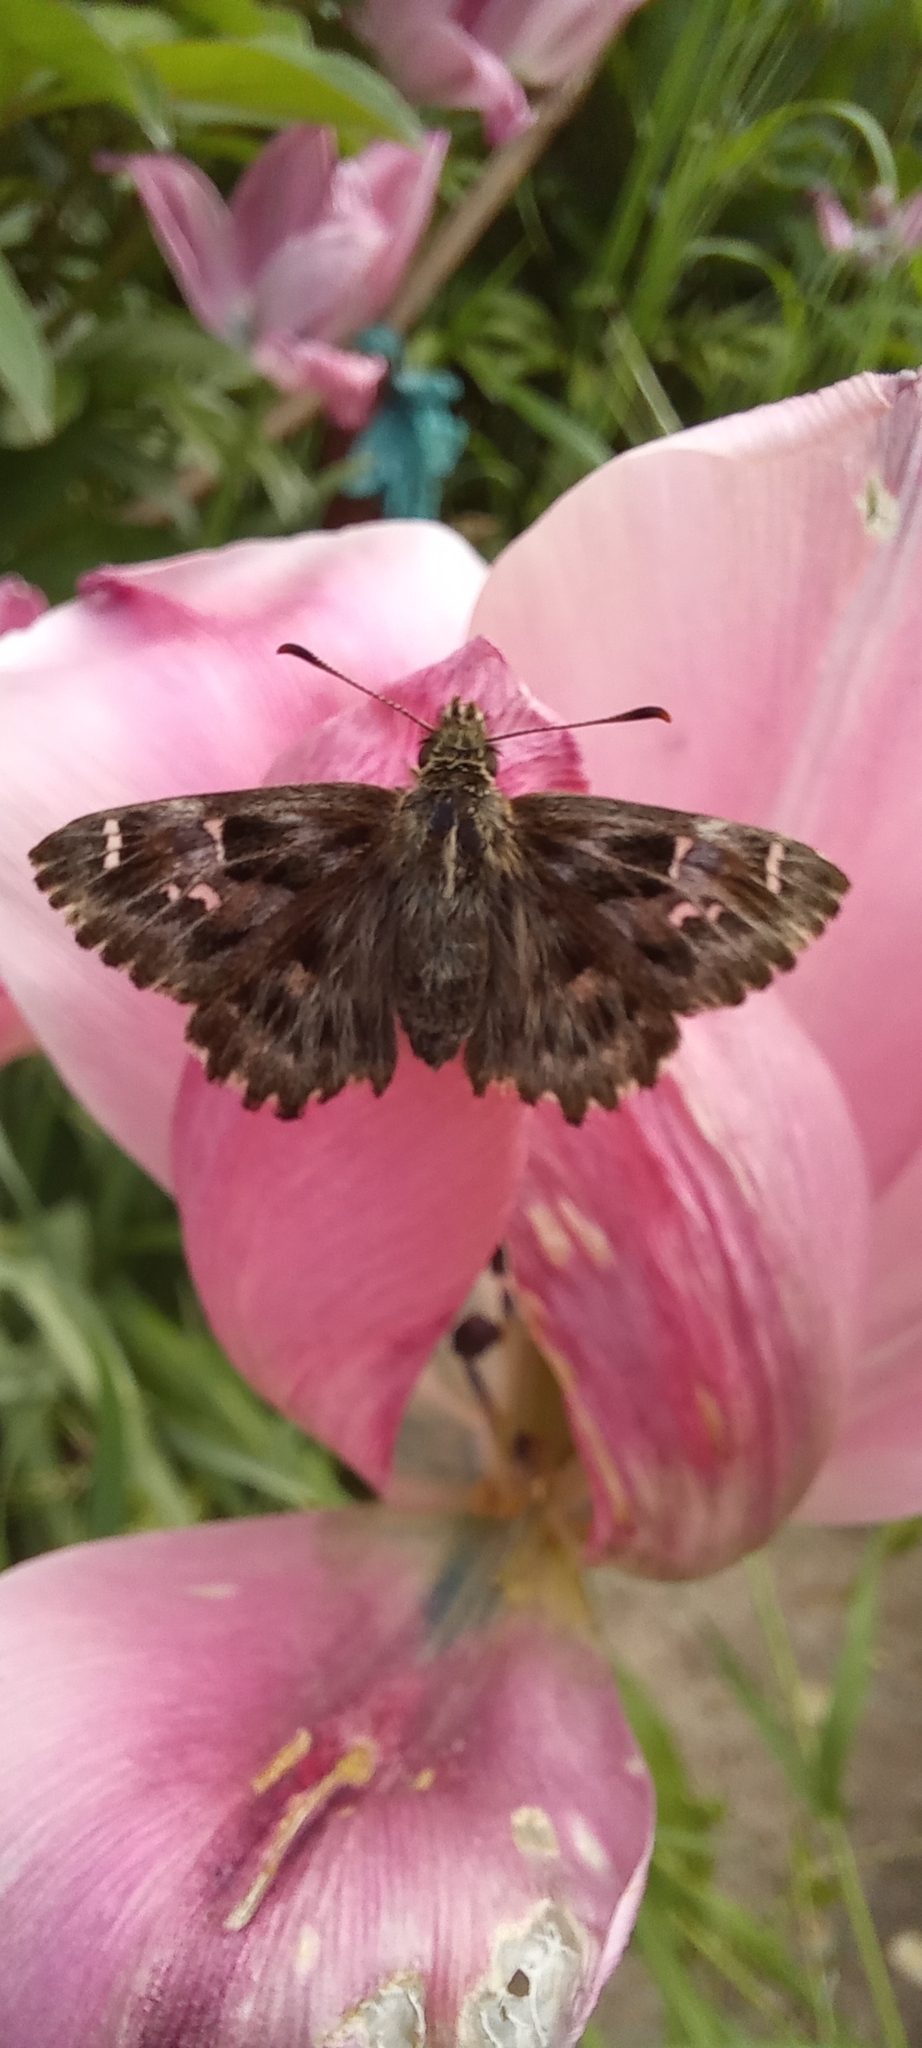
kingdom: Animalia
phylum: Arthropoda
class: Insecta
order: Lepidoptera
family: Hesperiidae
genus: Carcharodus
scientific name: Carcharodus alceae
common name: Mallow skipper
